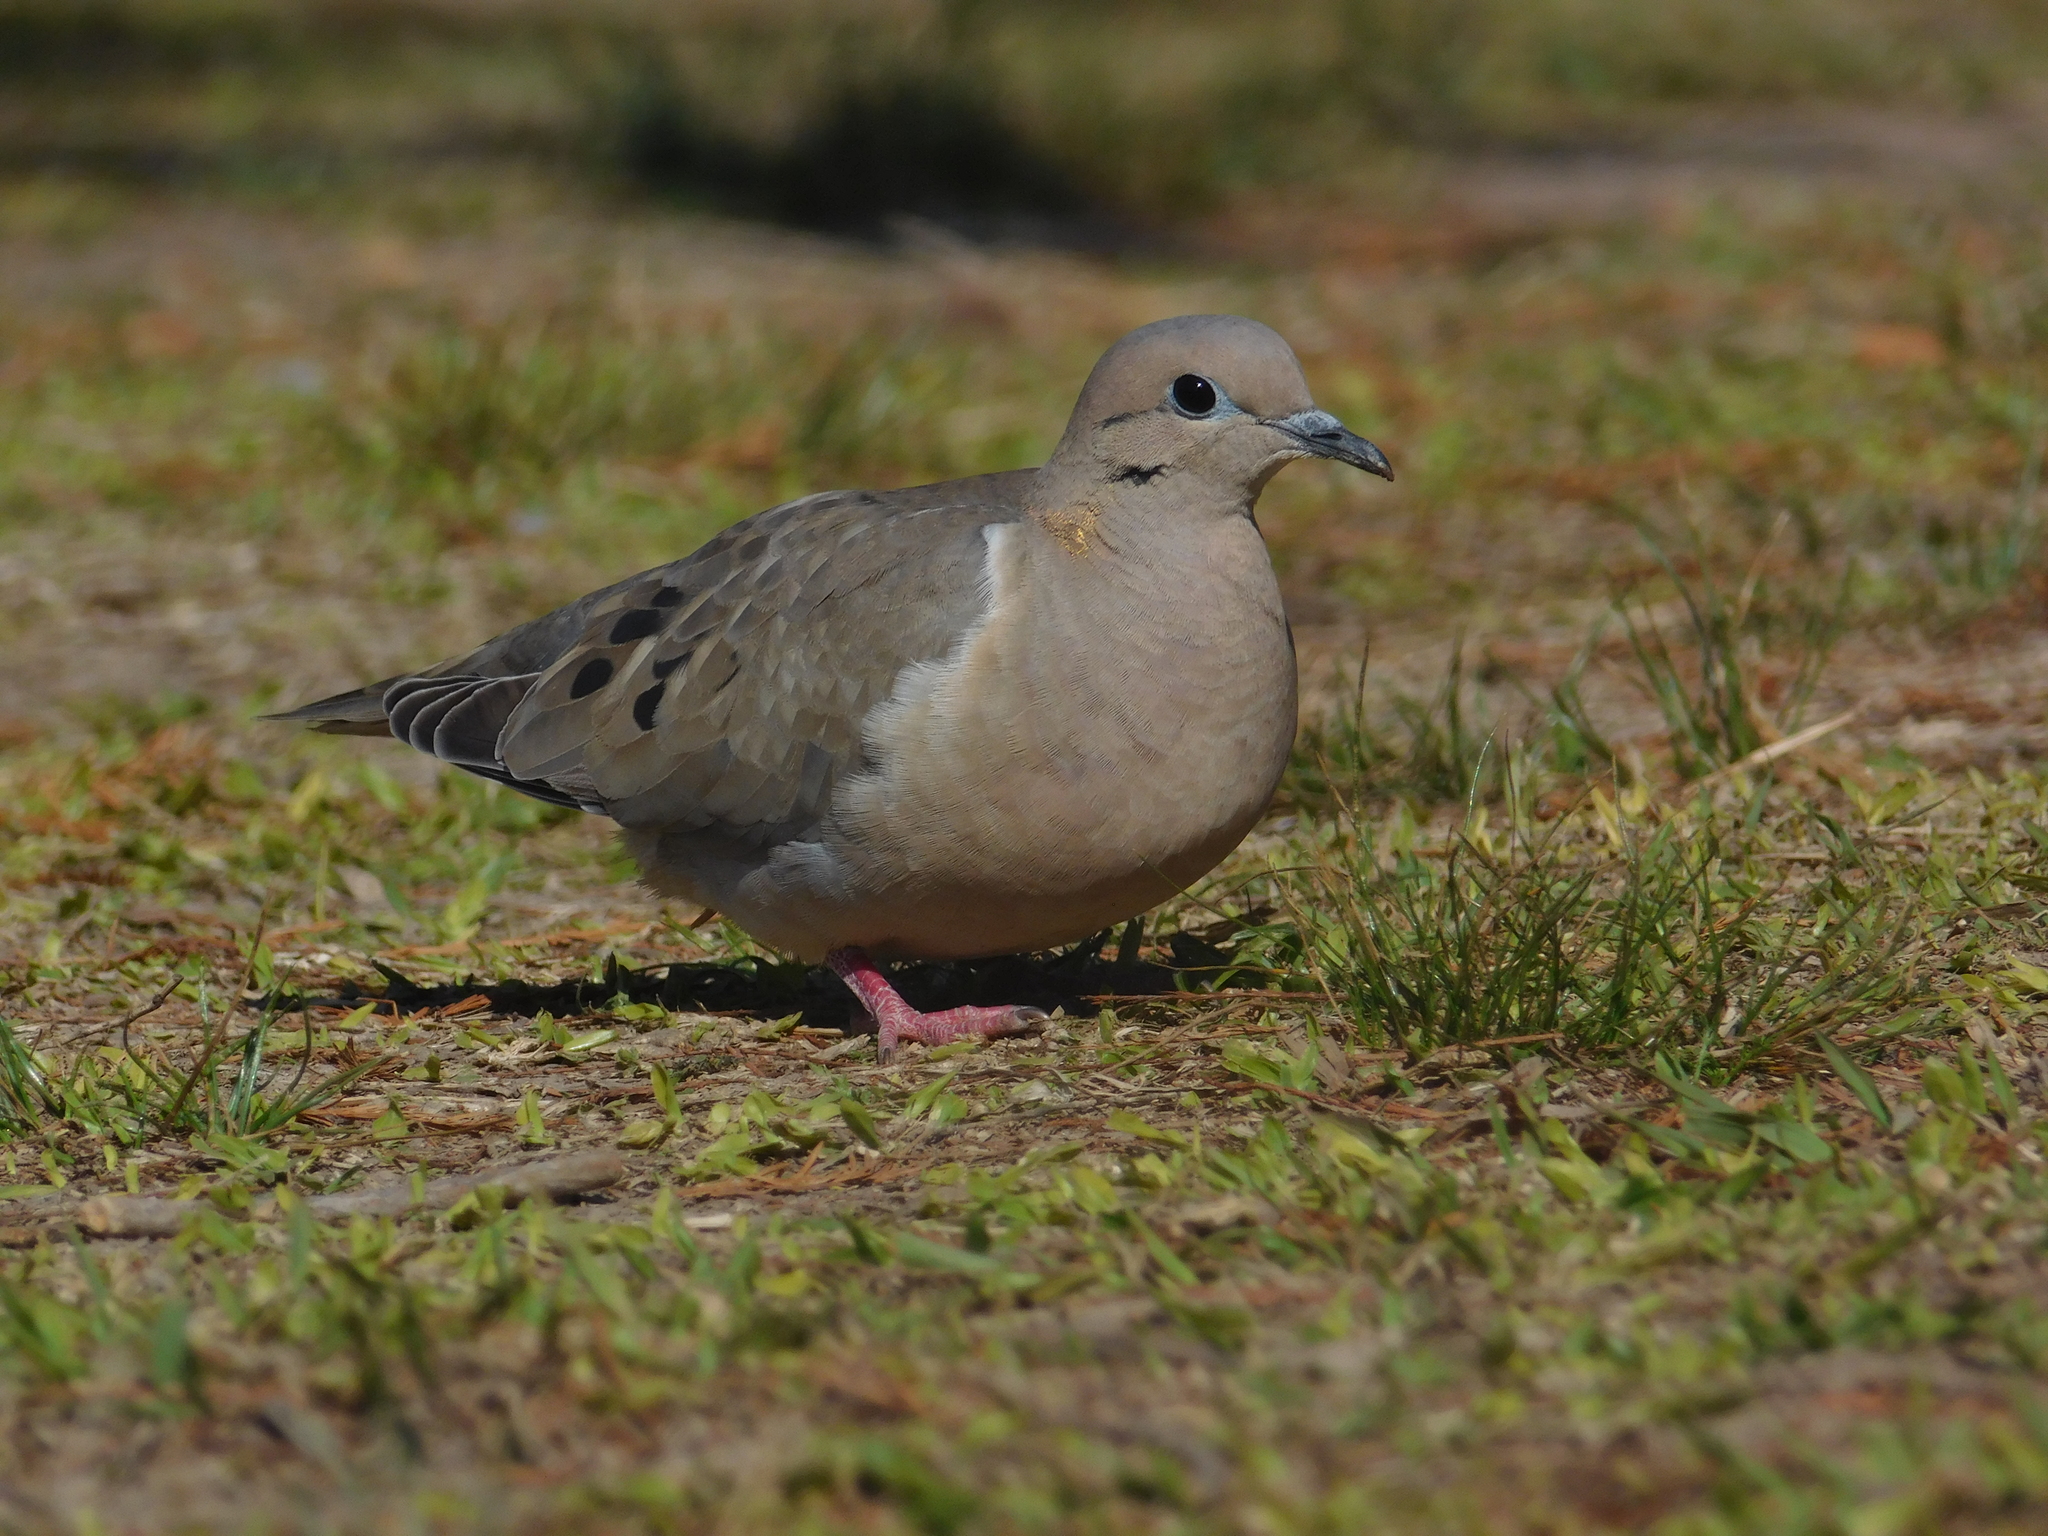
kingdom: Animalia
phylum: Chordata
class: Aves
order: Columbiformes
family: Columbidae
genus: Zenaida
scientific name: Zenaida auriculata
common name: Eared dove
